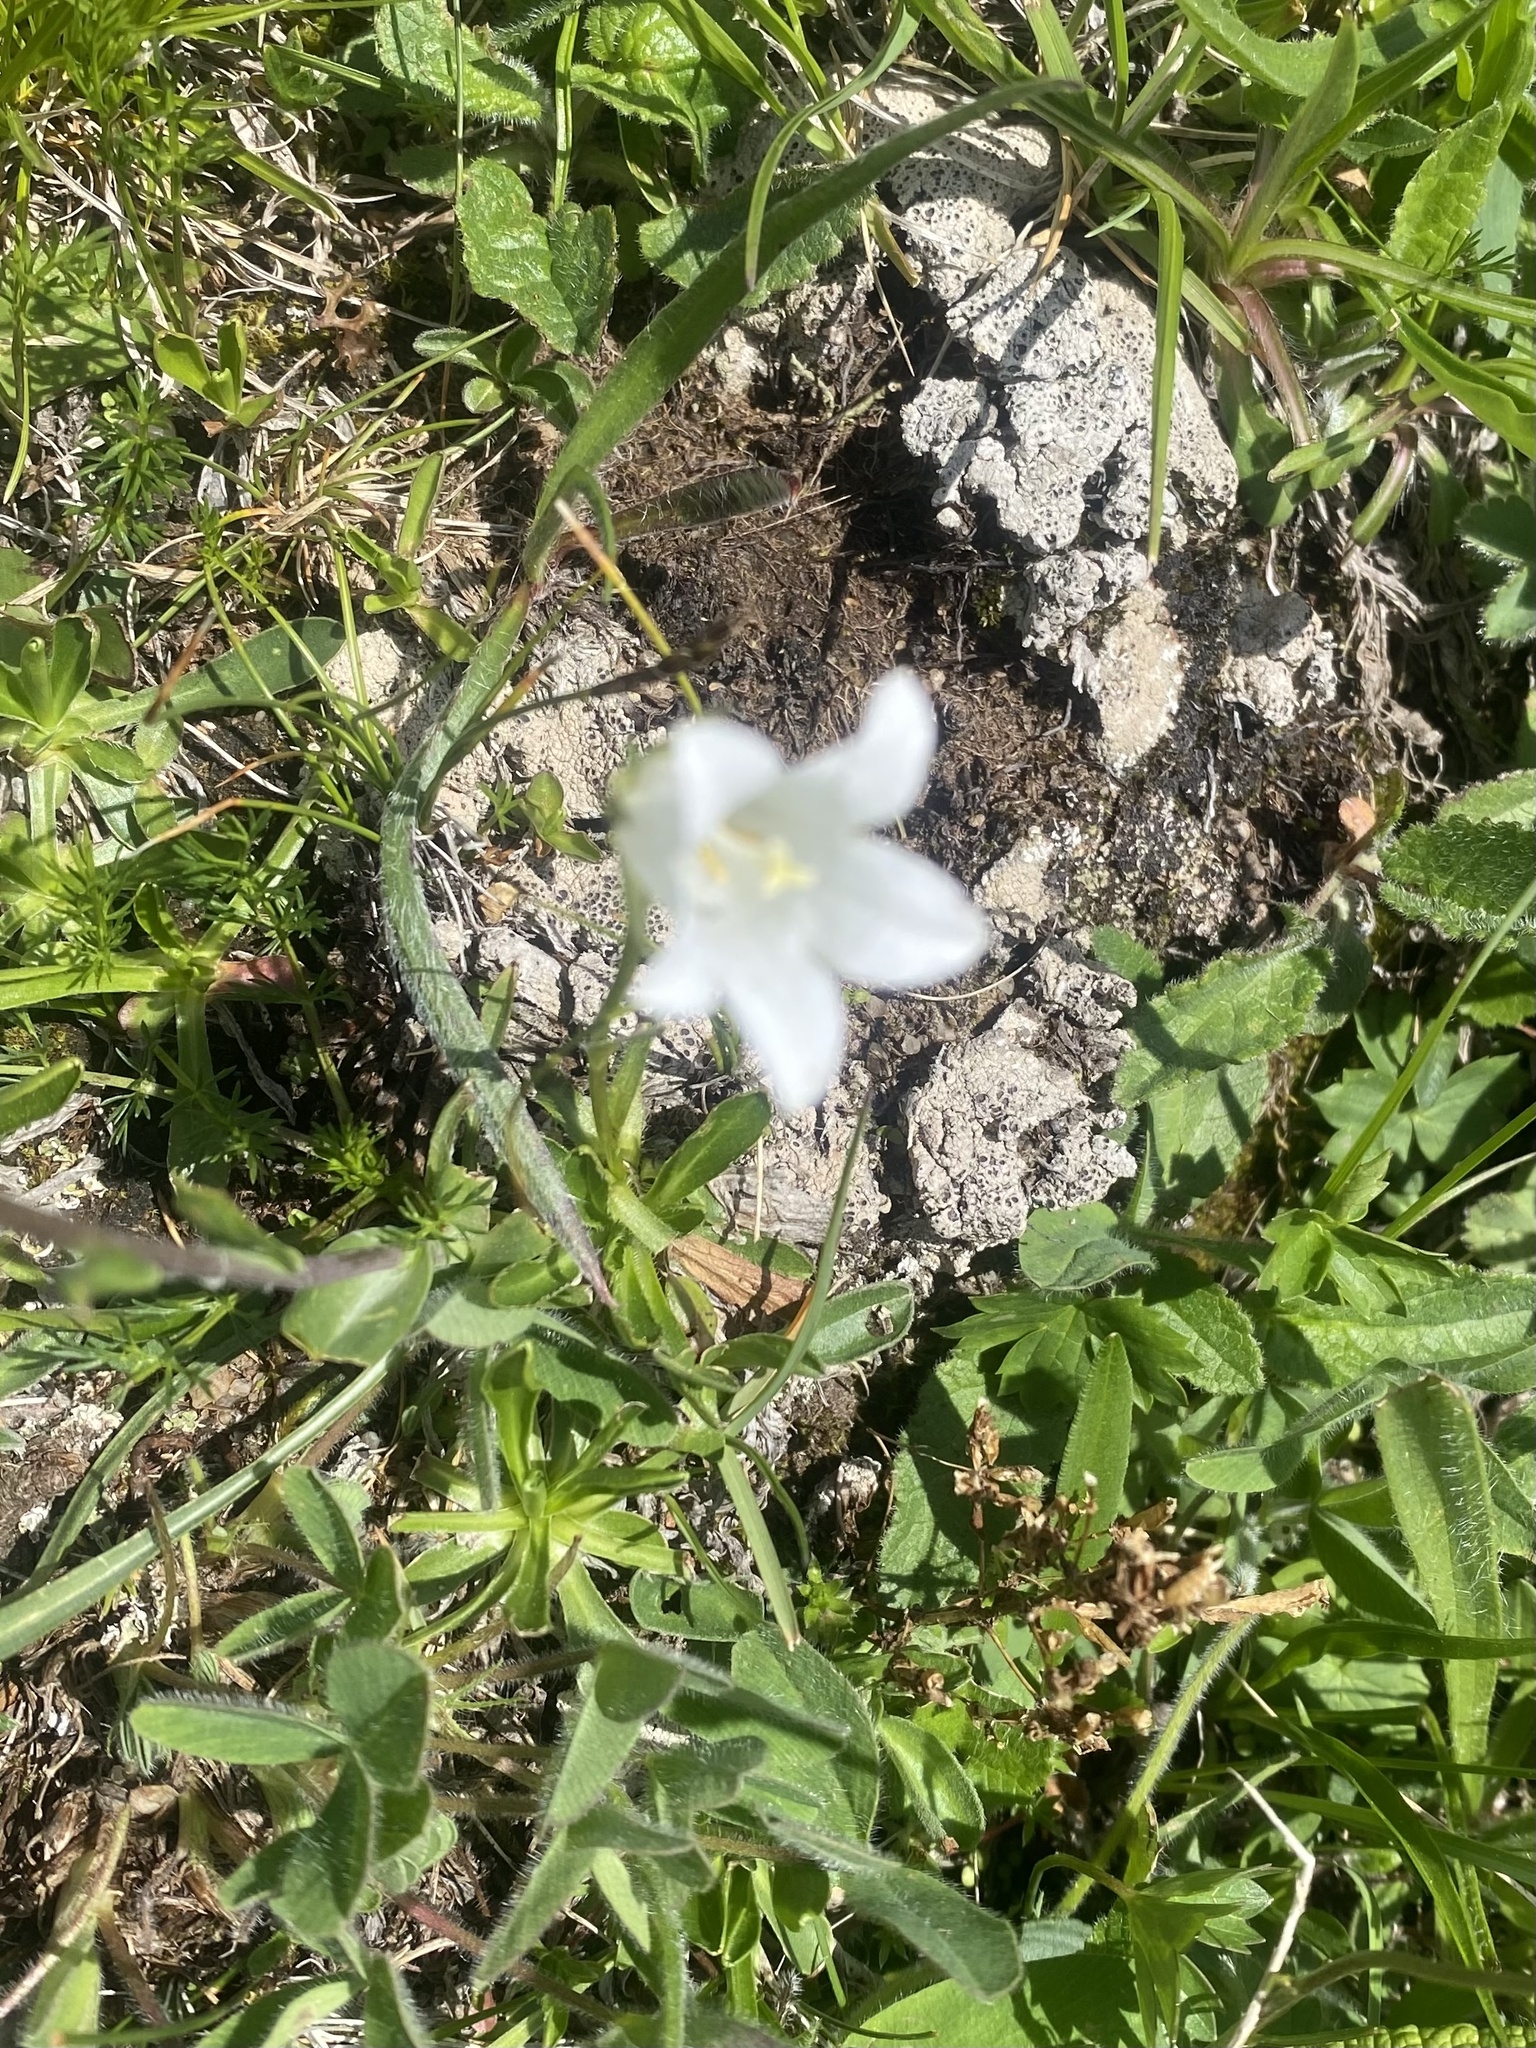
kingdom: Plantae
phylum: Tracheophyta
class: Magnoliopsida
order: Asterales
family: Campanulaceae
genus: Campanula
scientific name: Campanula ciliata
